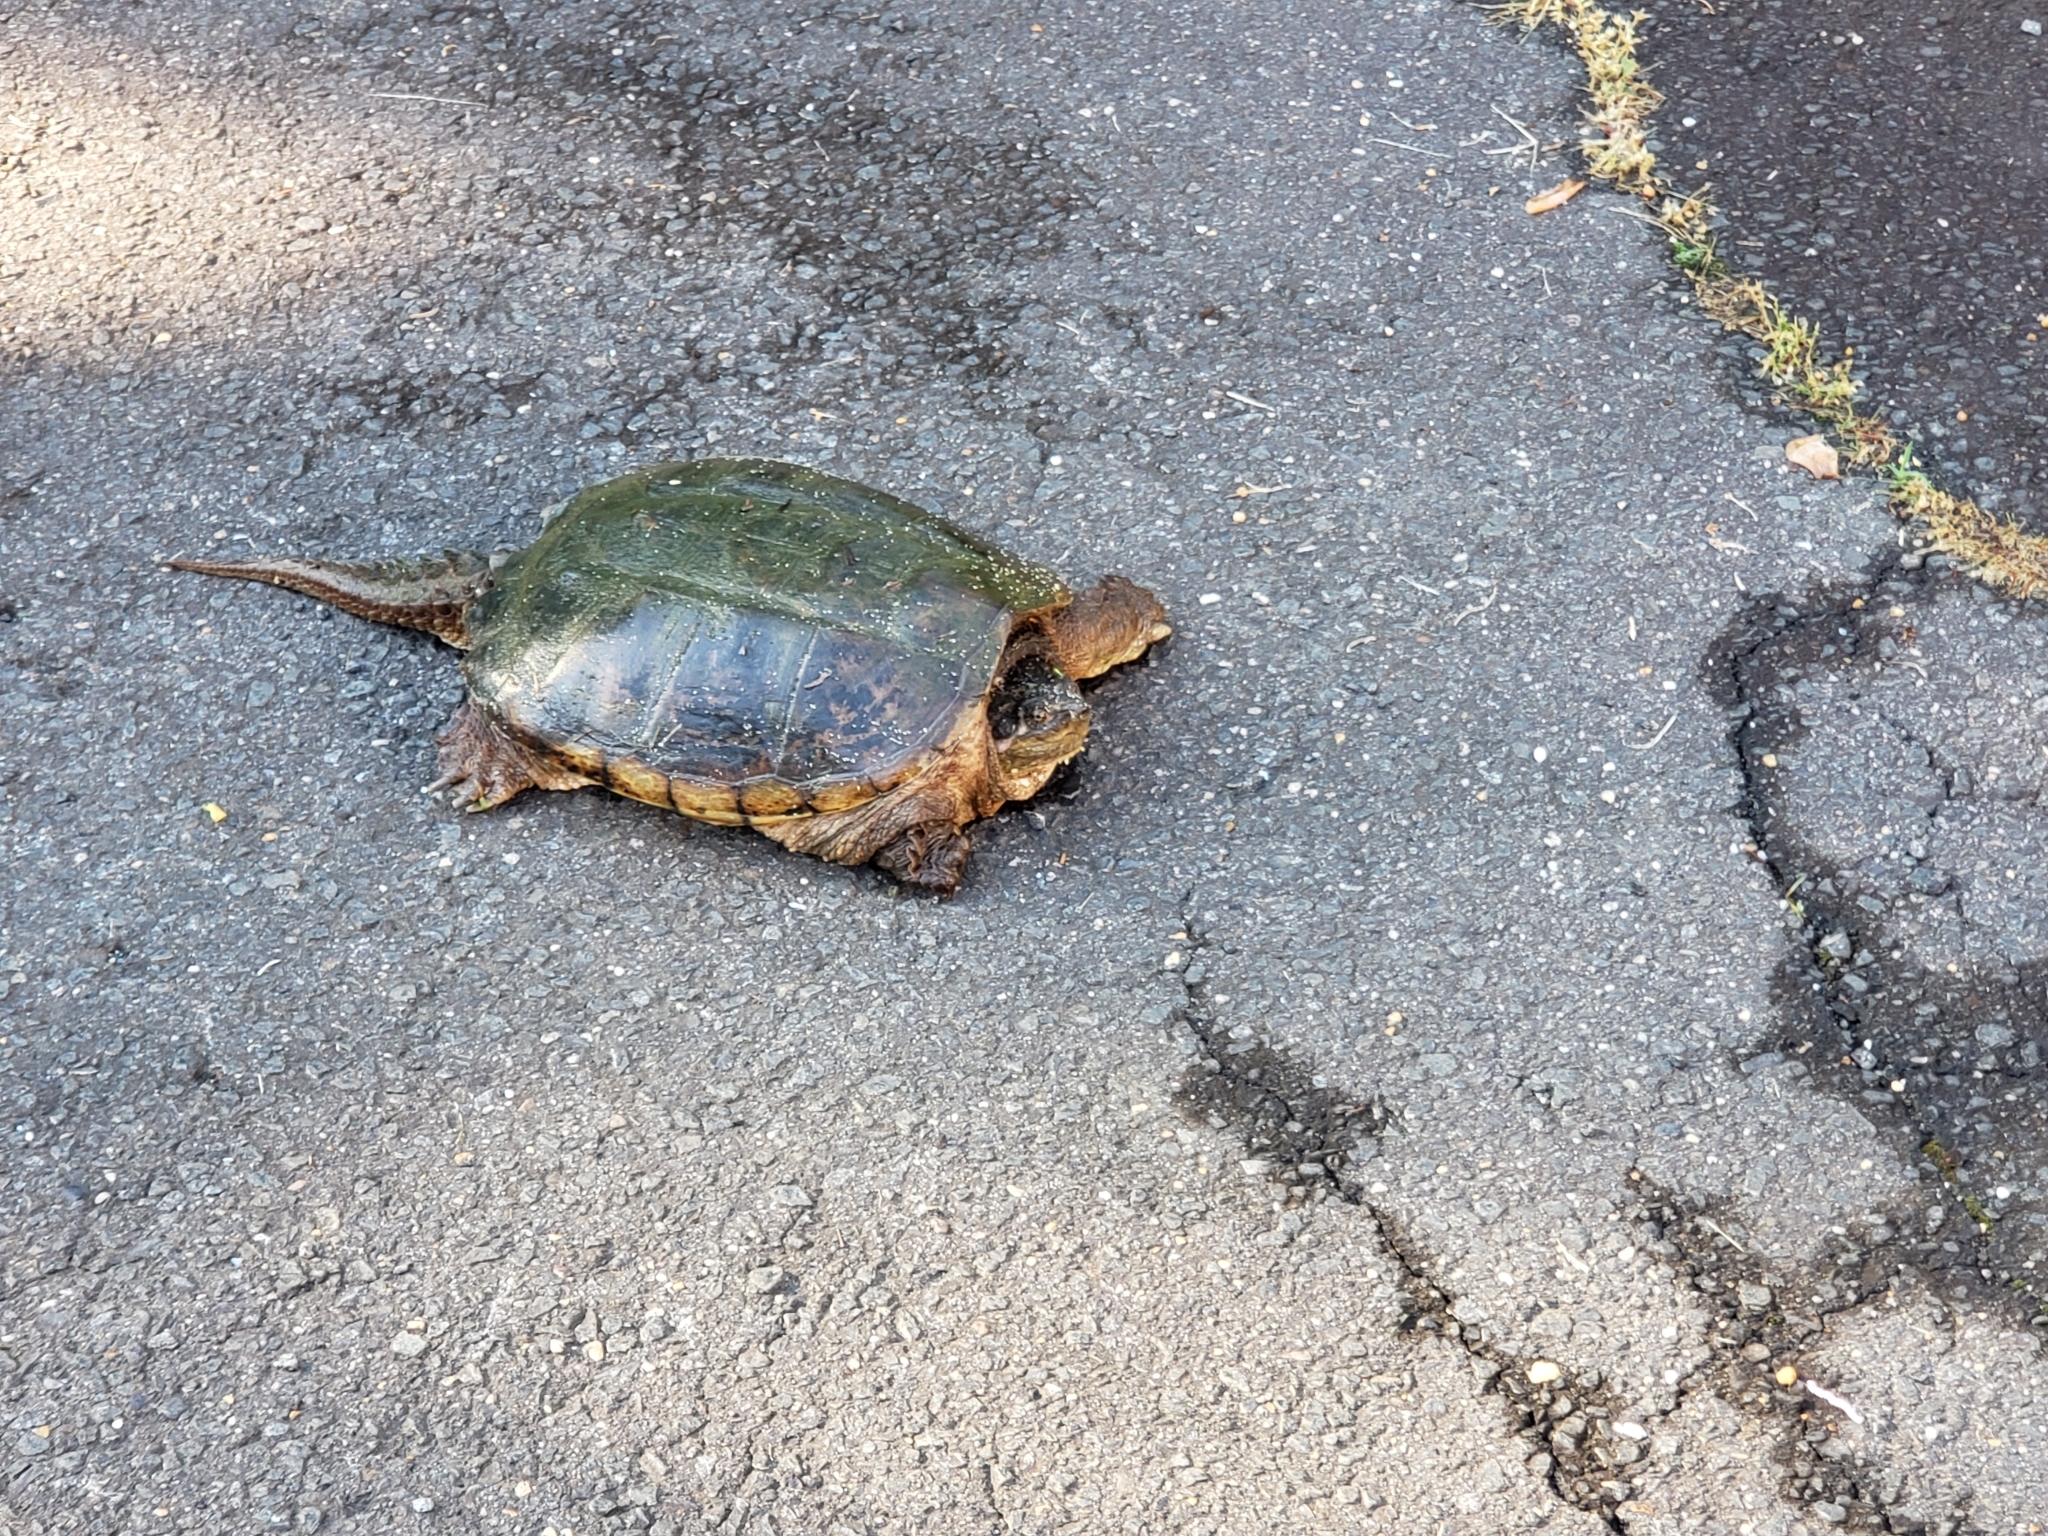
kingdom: Animalia
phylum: Chordata
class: Testudines
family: Chelydridae
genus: Chelydra
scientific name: Chelydra serpentina
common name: Common snapping turtle
